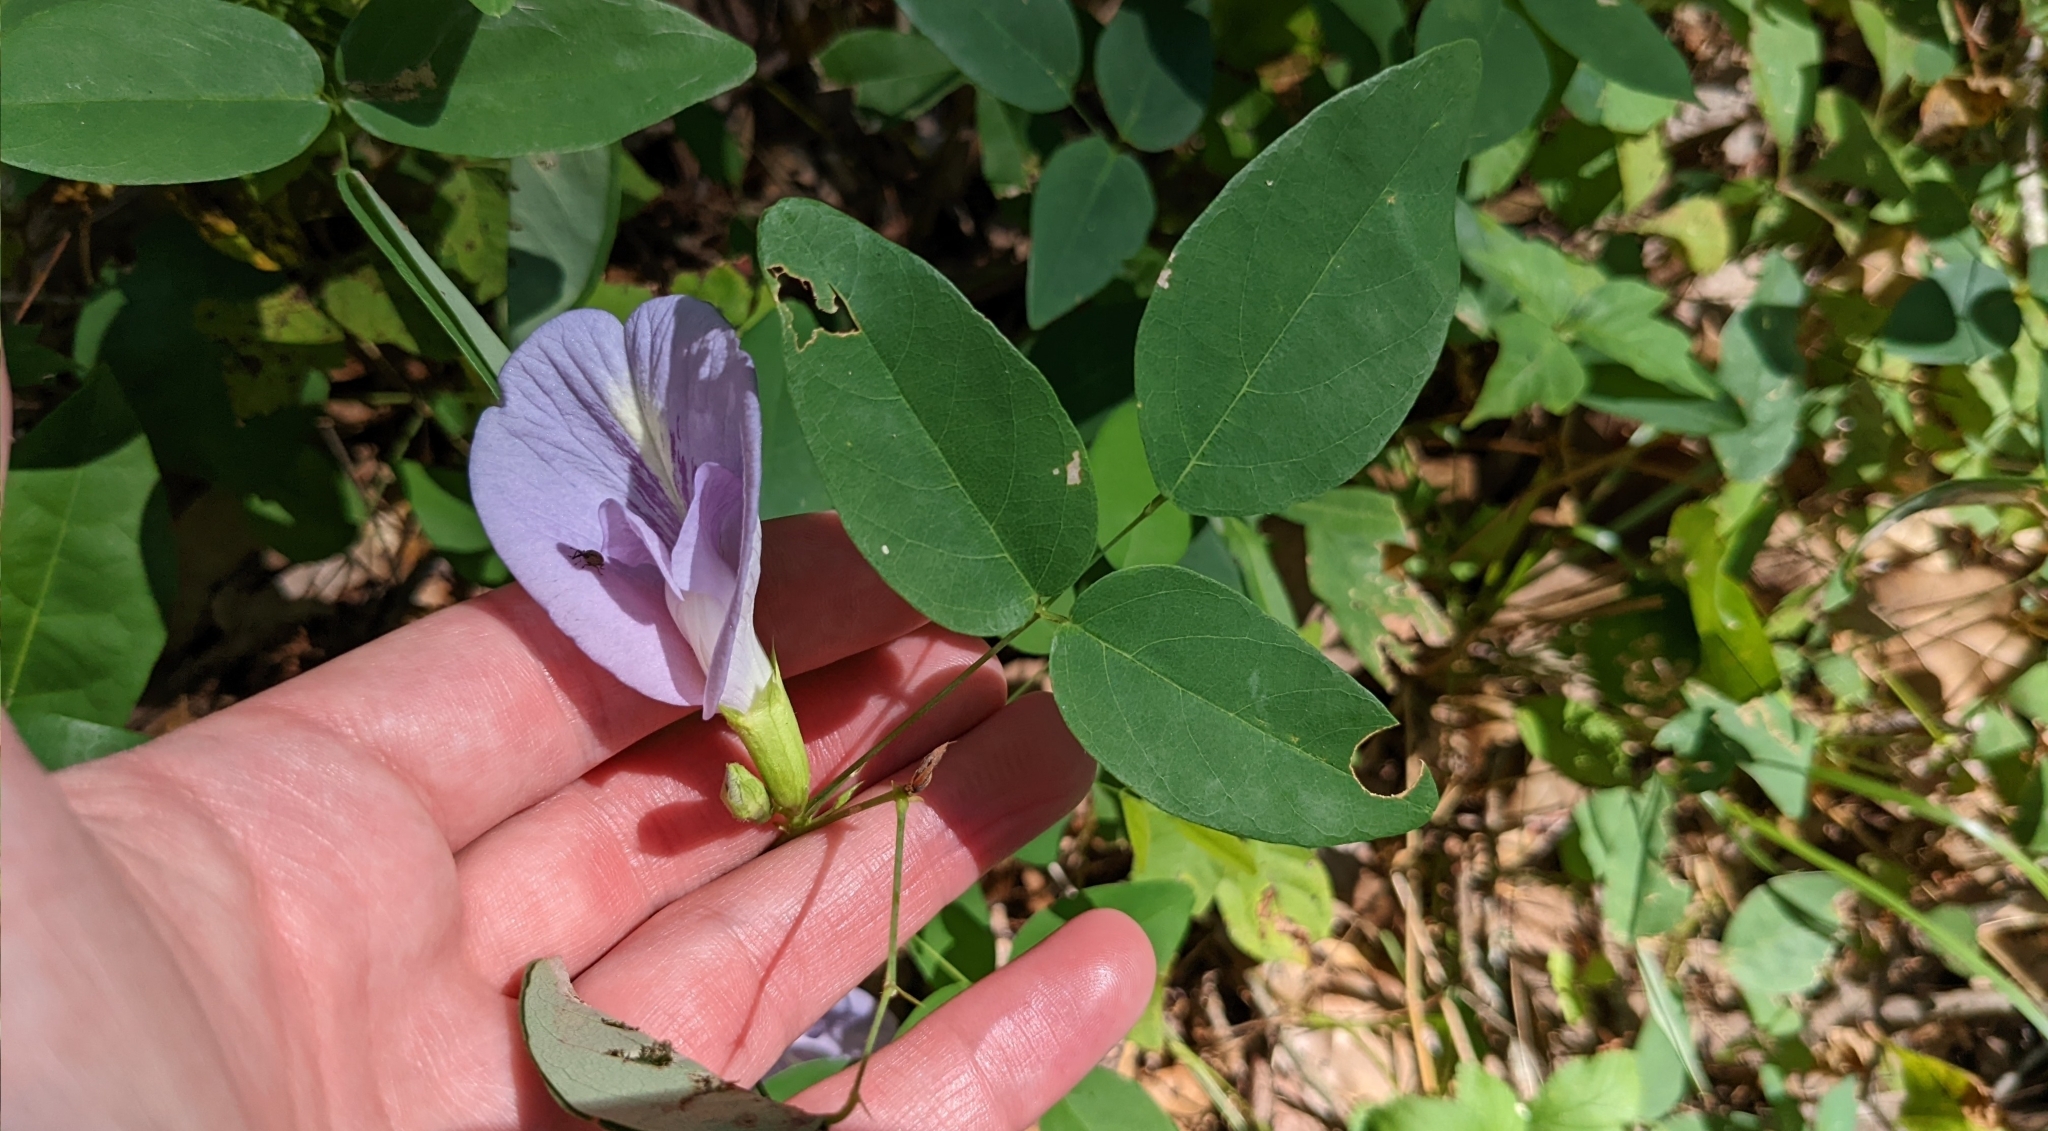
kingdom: Plantae
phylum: Tracheophyta
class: Magnoliopsida
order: Fabales
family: Fabaceae
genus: Clitoria
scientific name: Clitoria mariana
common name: Butterfly-pea
